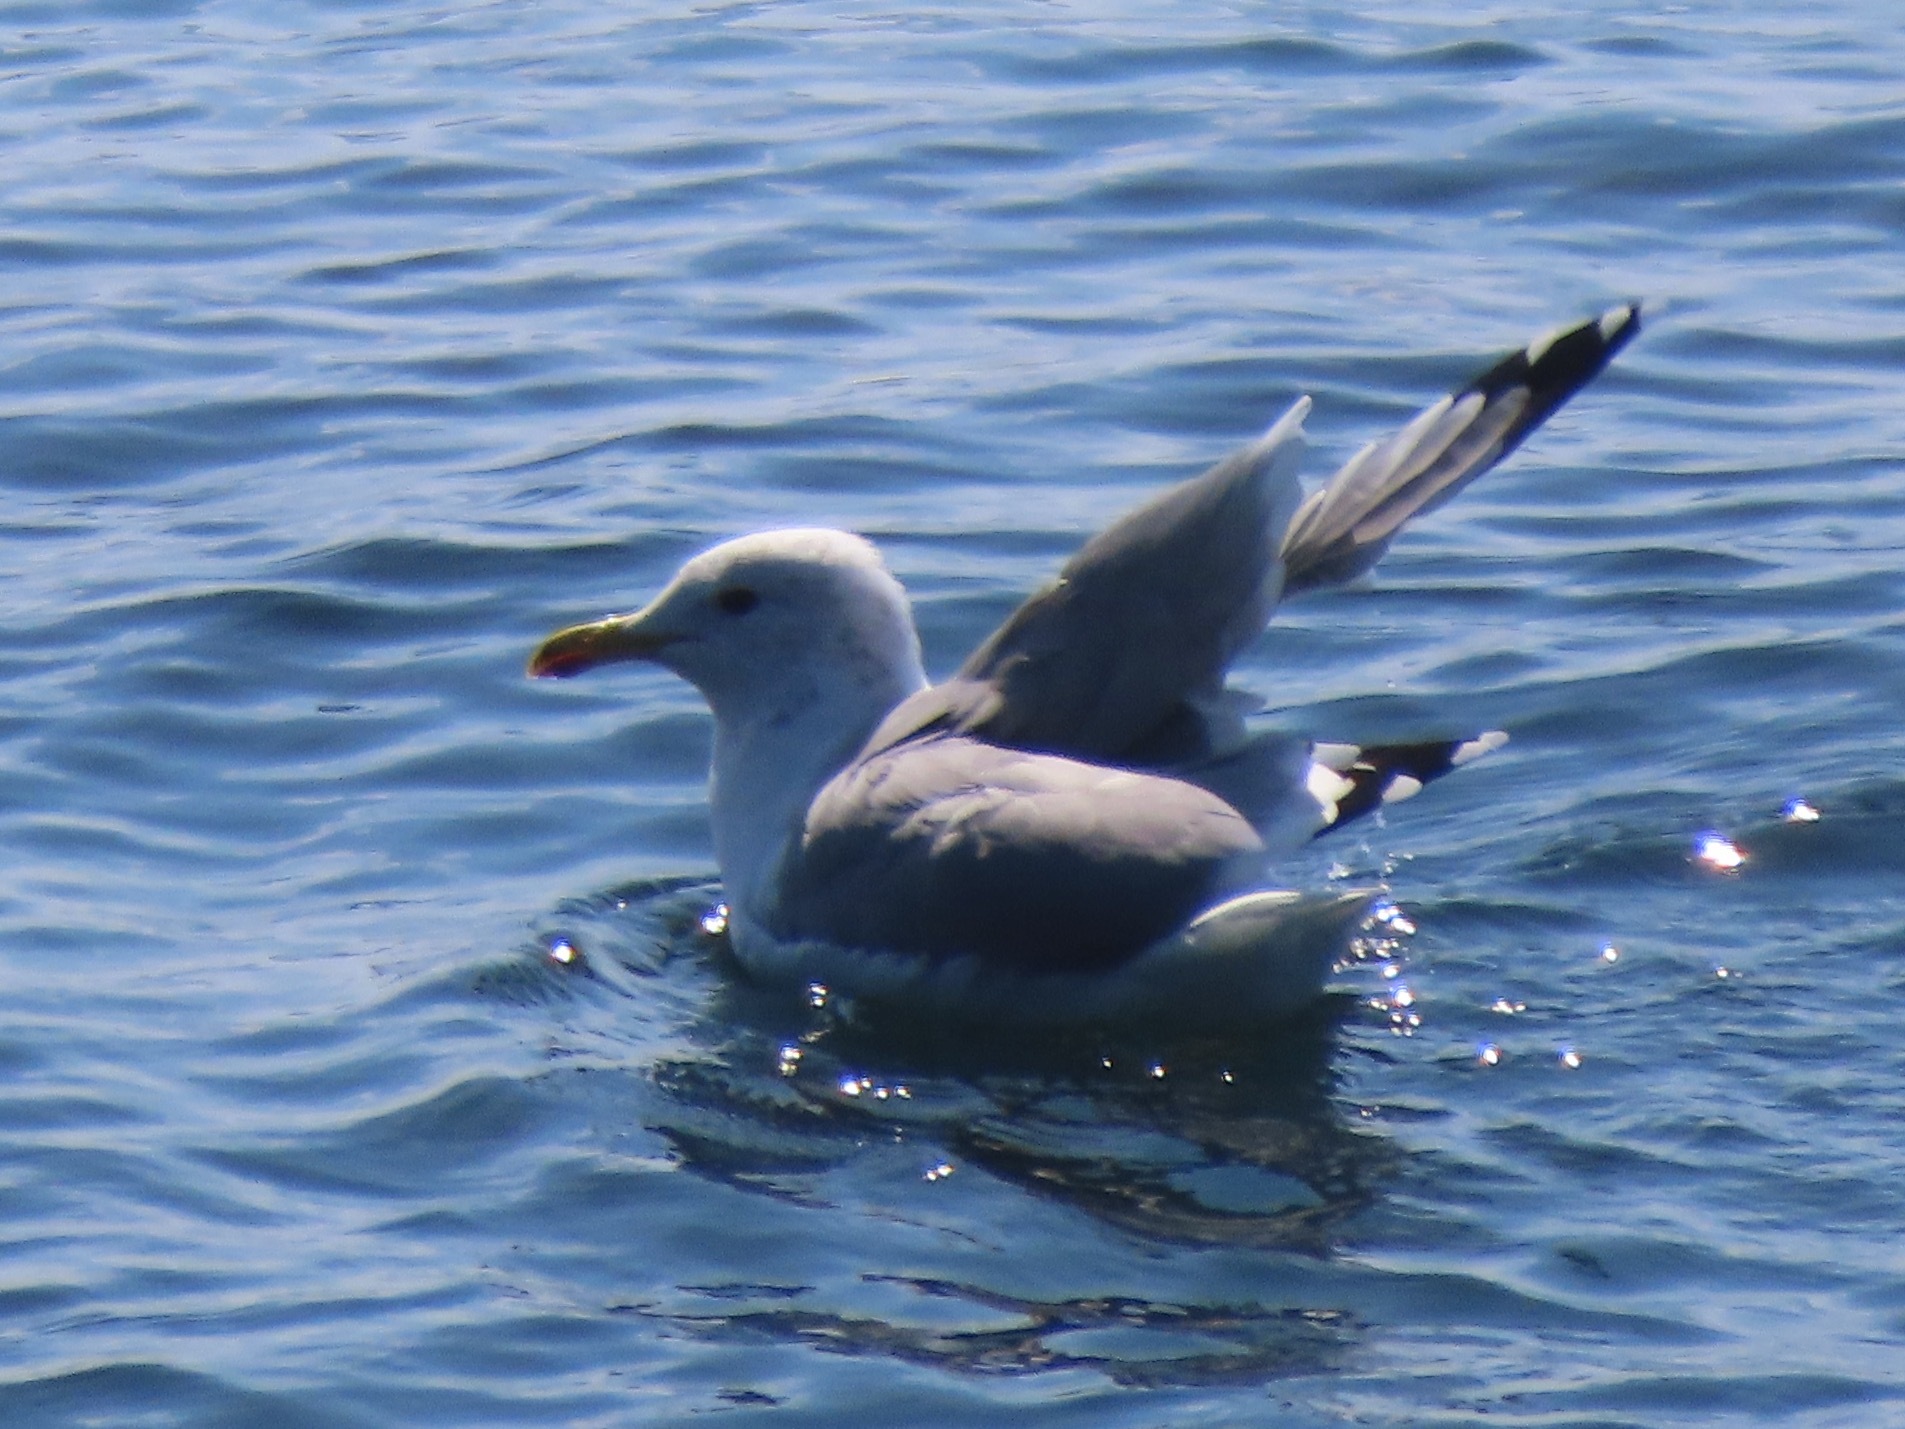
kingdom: Animalia
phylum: Chordata
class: Aves
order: Charadriiformes
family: Laridae
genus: Larus
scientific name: Larus californicus
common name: California gull
